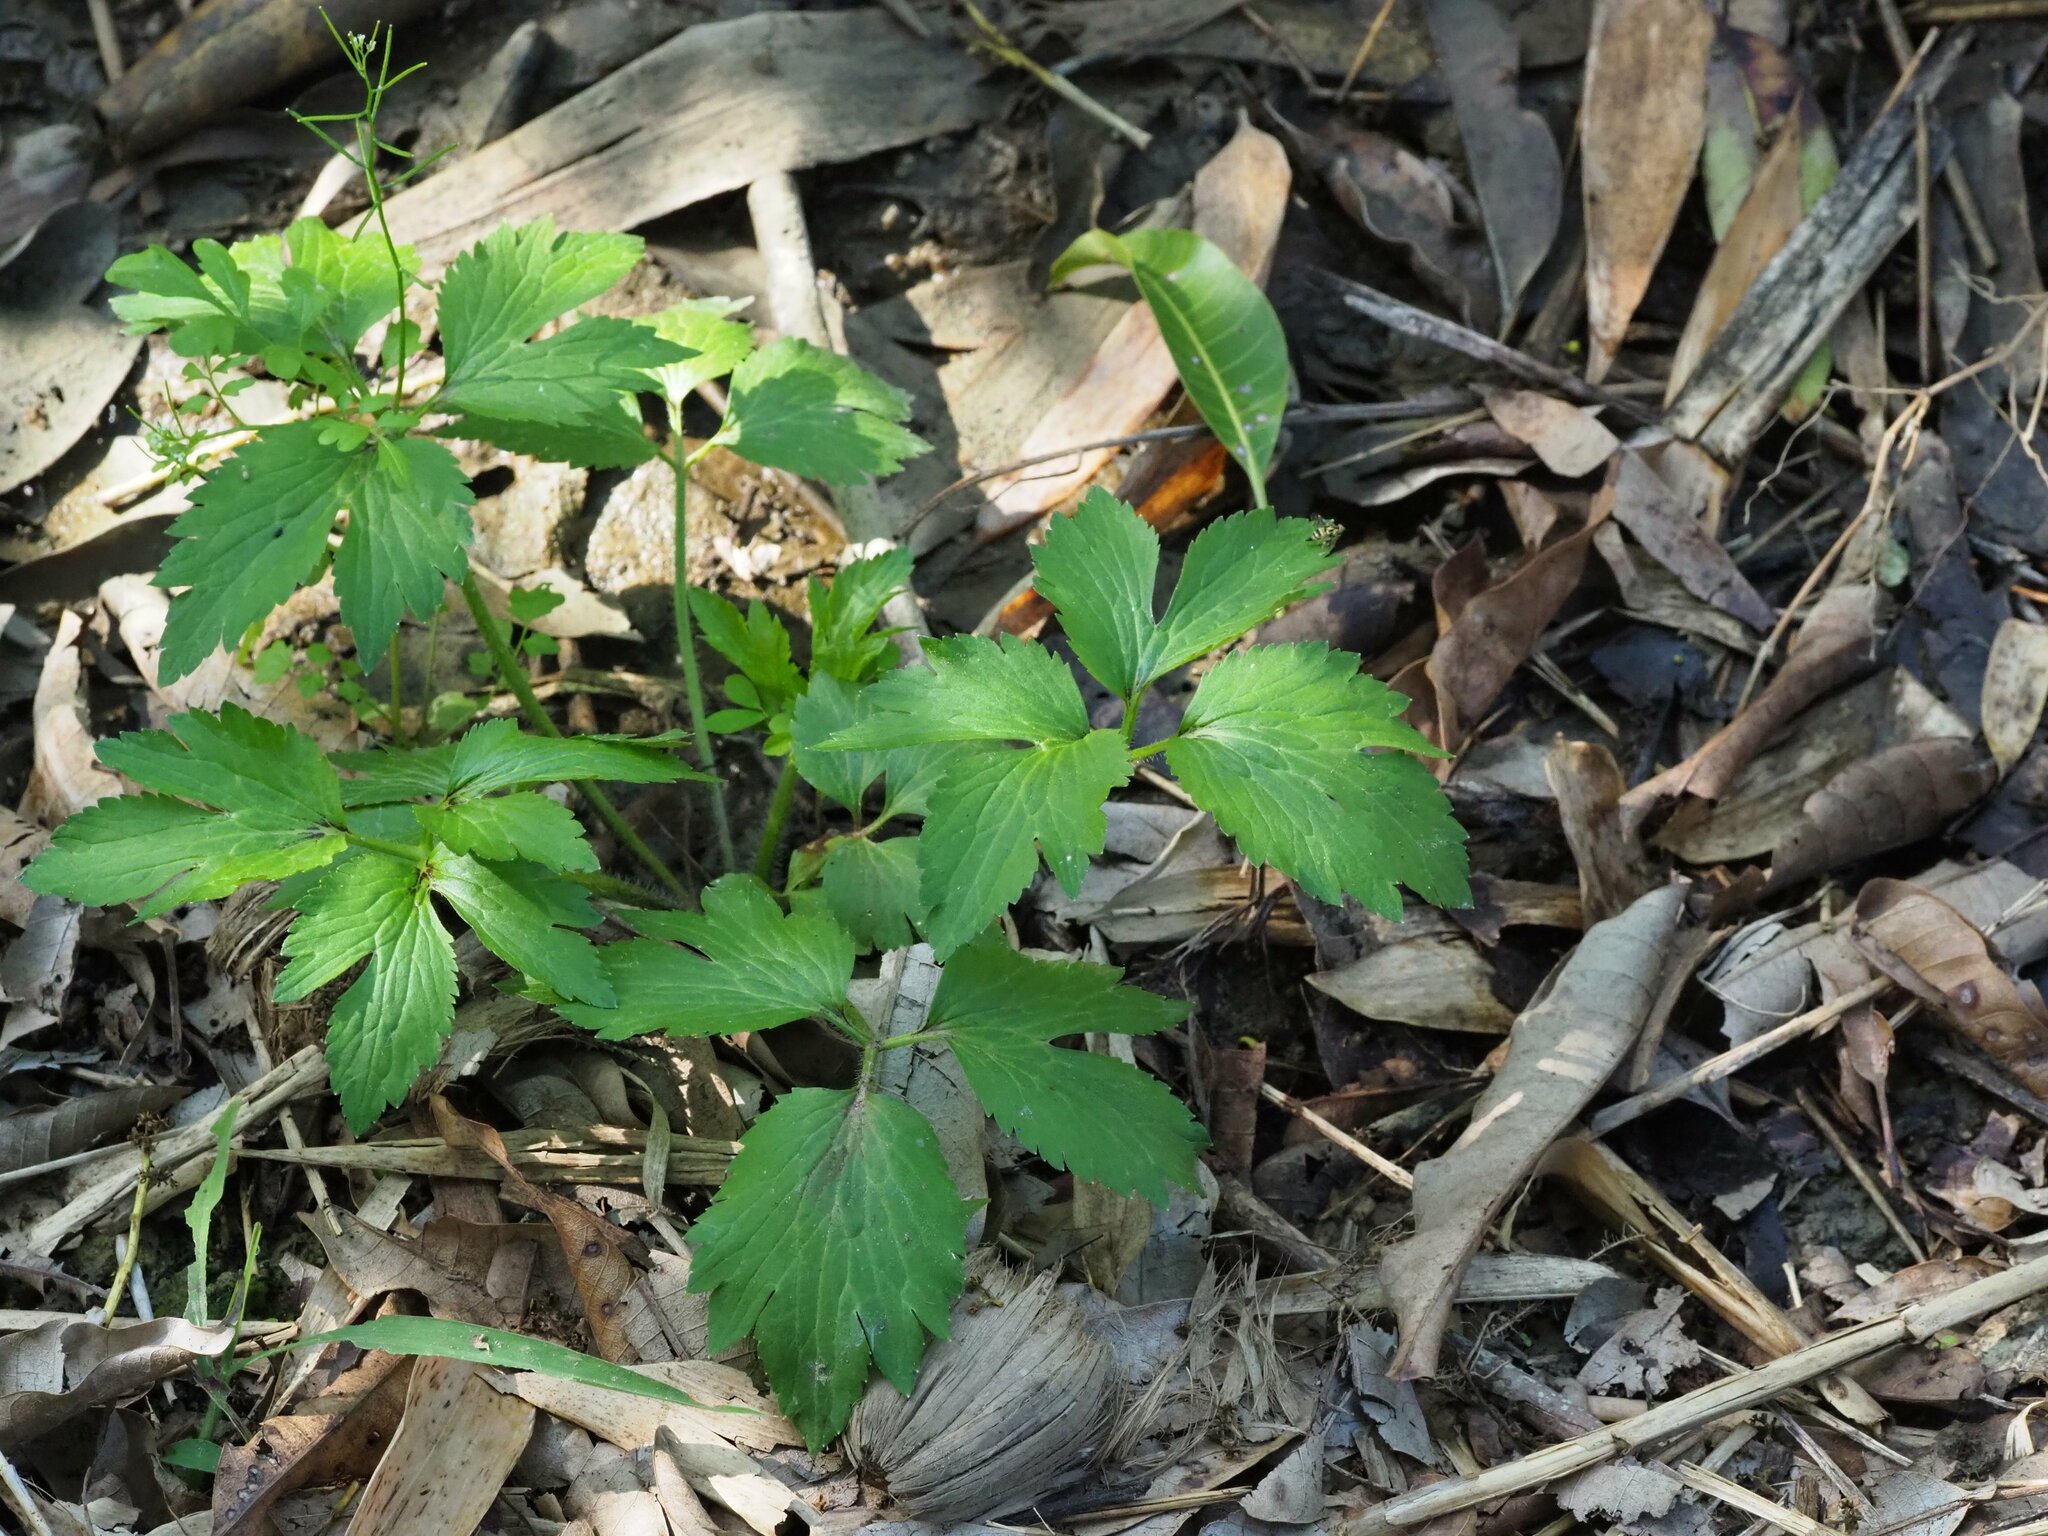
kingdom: Plantae
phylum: Tracheophyta
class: Magnoliopsida
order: Ranunculales
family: Ranunculaceae
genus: Ranunculus
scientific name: Ranunculus cantoniensis
